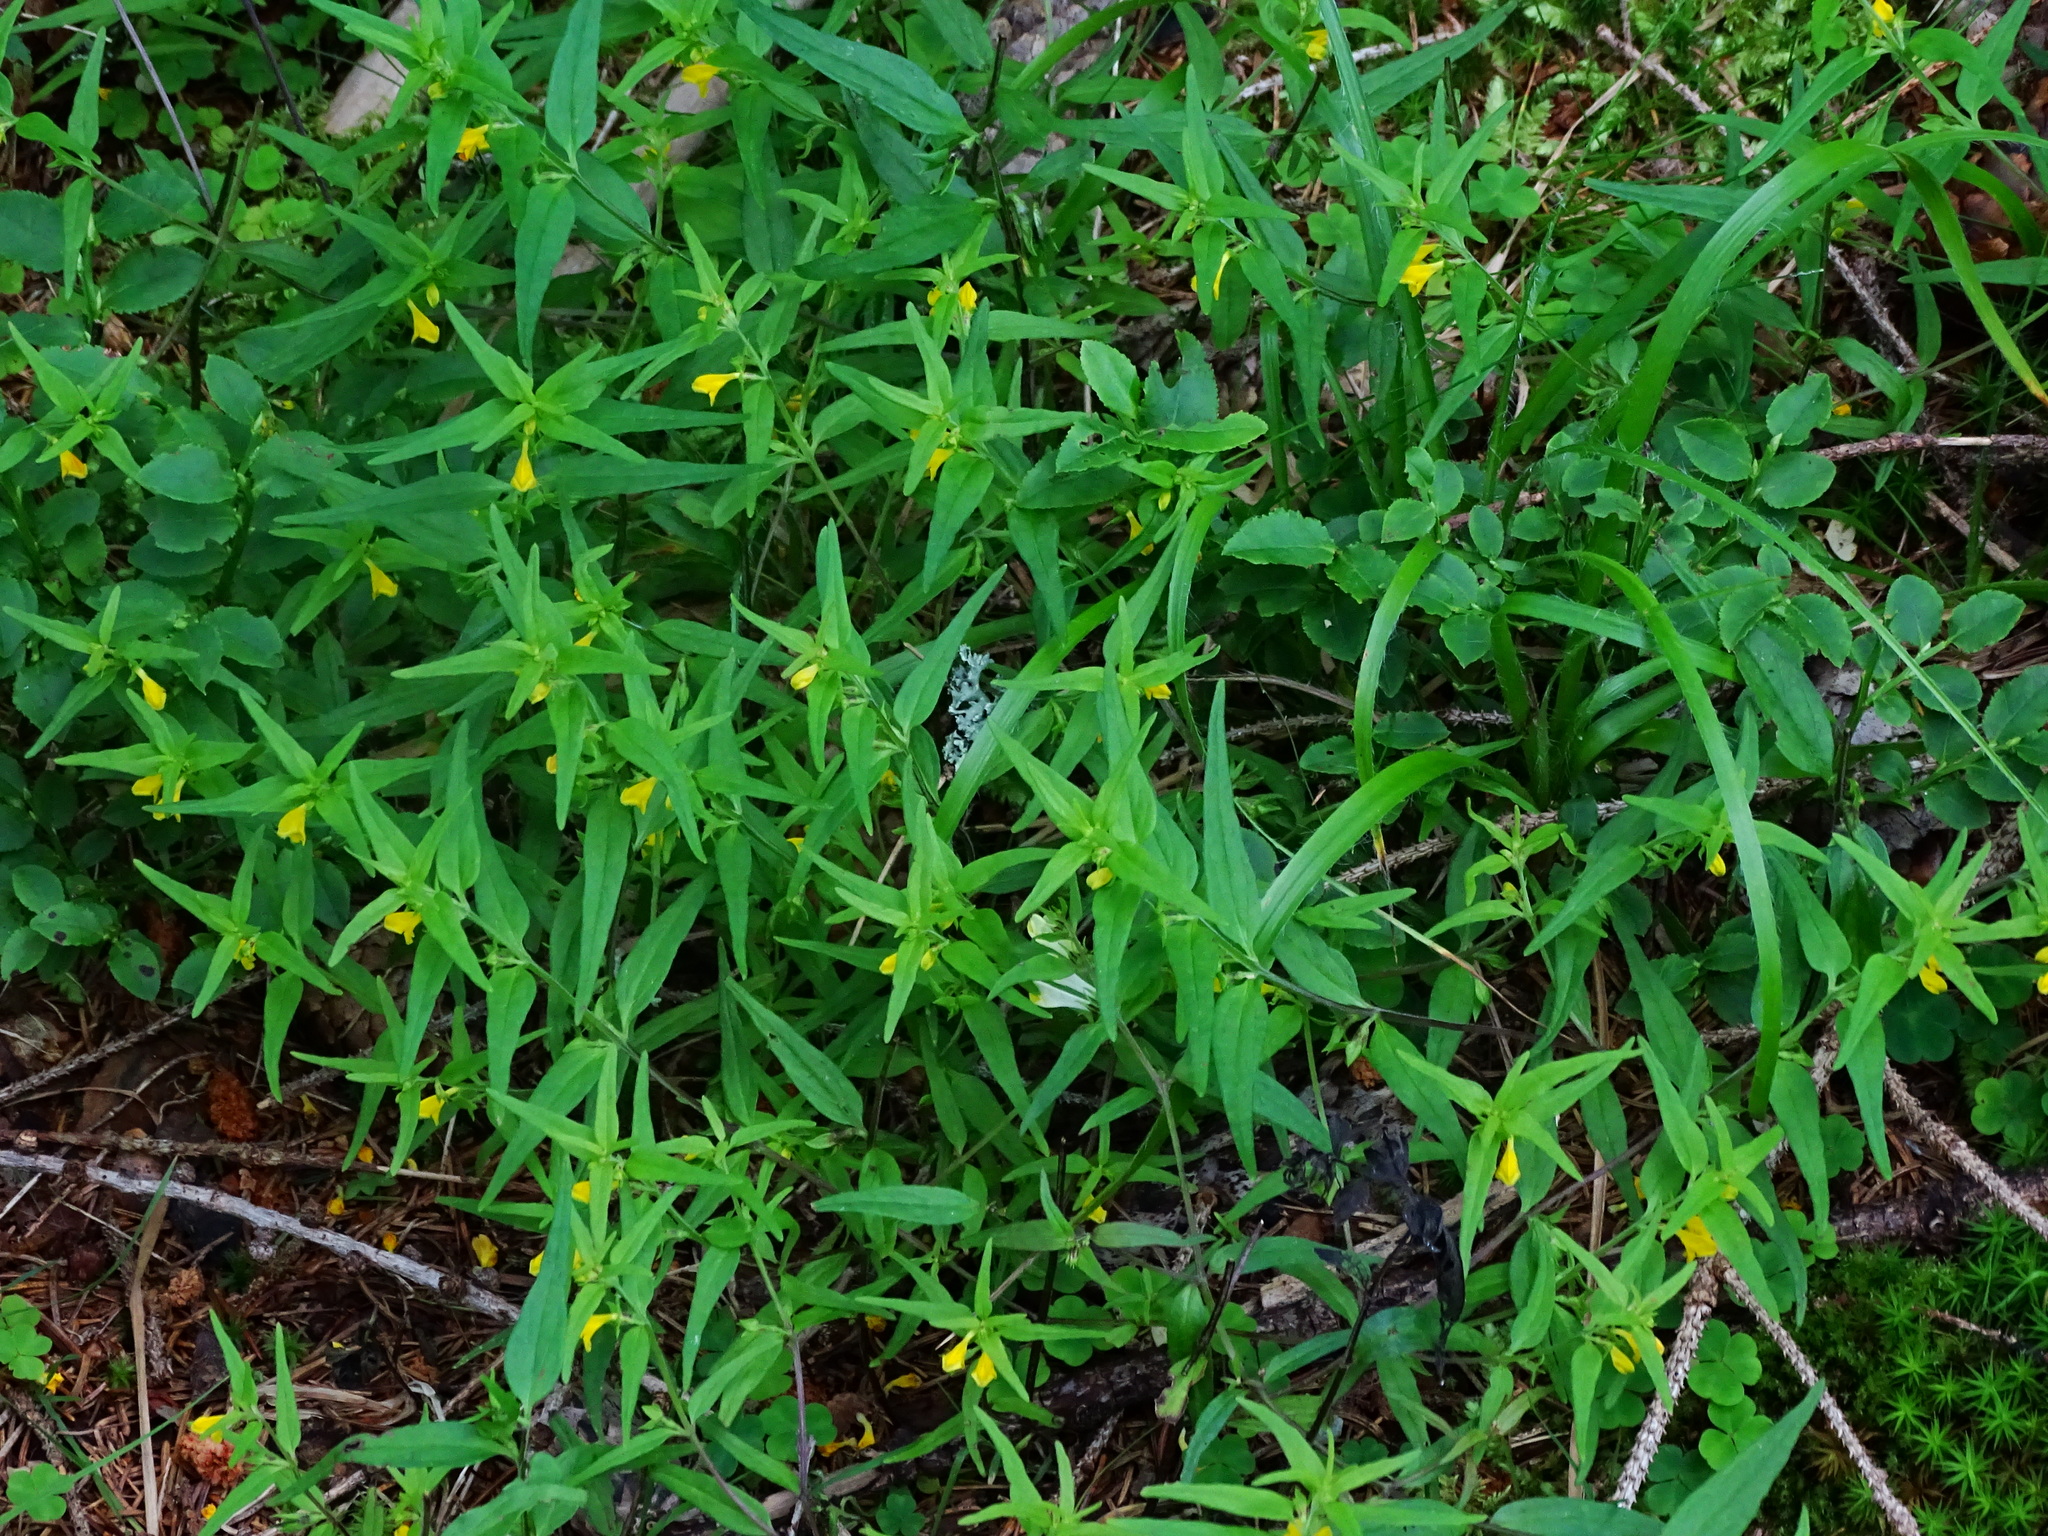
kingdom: Plantae
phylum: Tracheophyta
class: Magnoliopsida
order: Lamiales
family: Orobanchaceae
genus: Melampyrum
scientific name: Melampyrum sylvaticum
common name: Small cow-wheat
